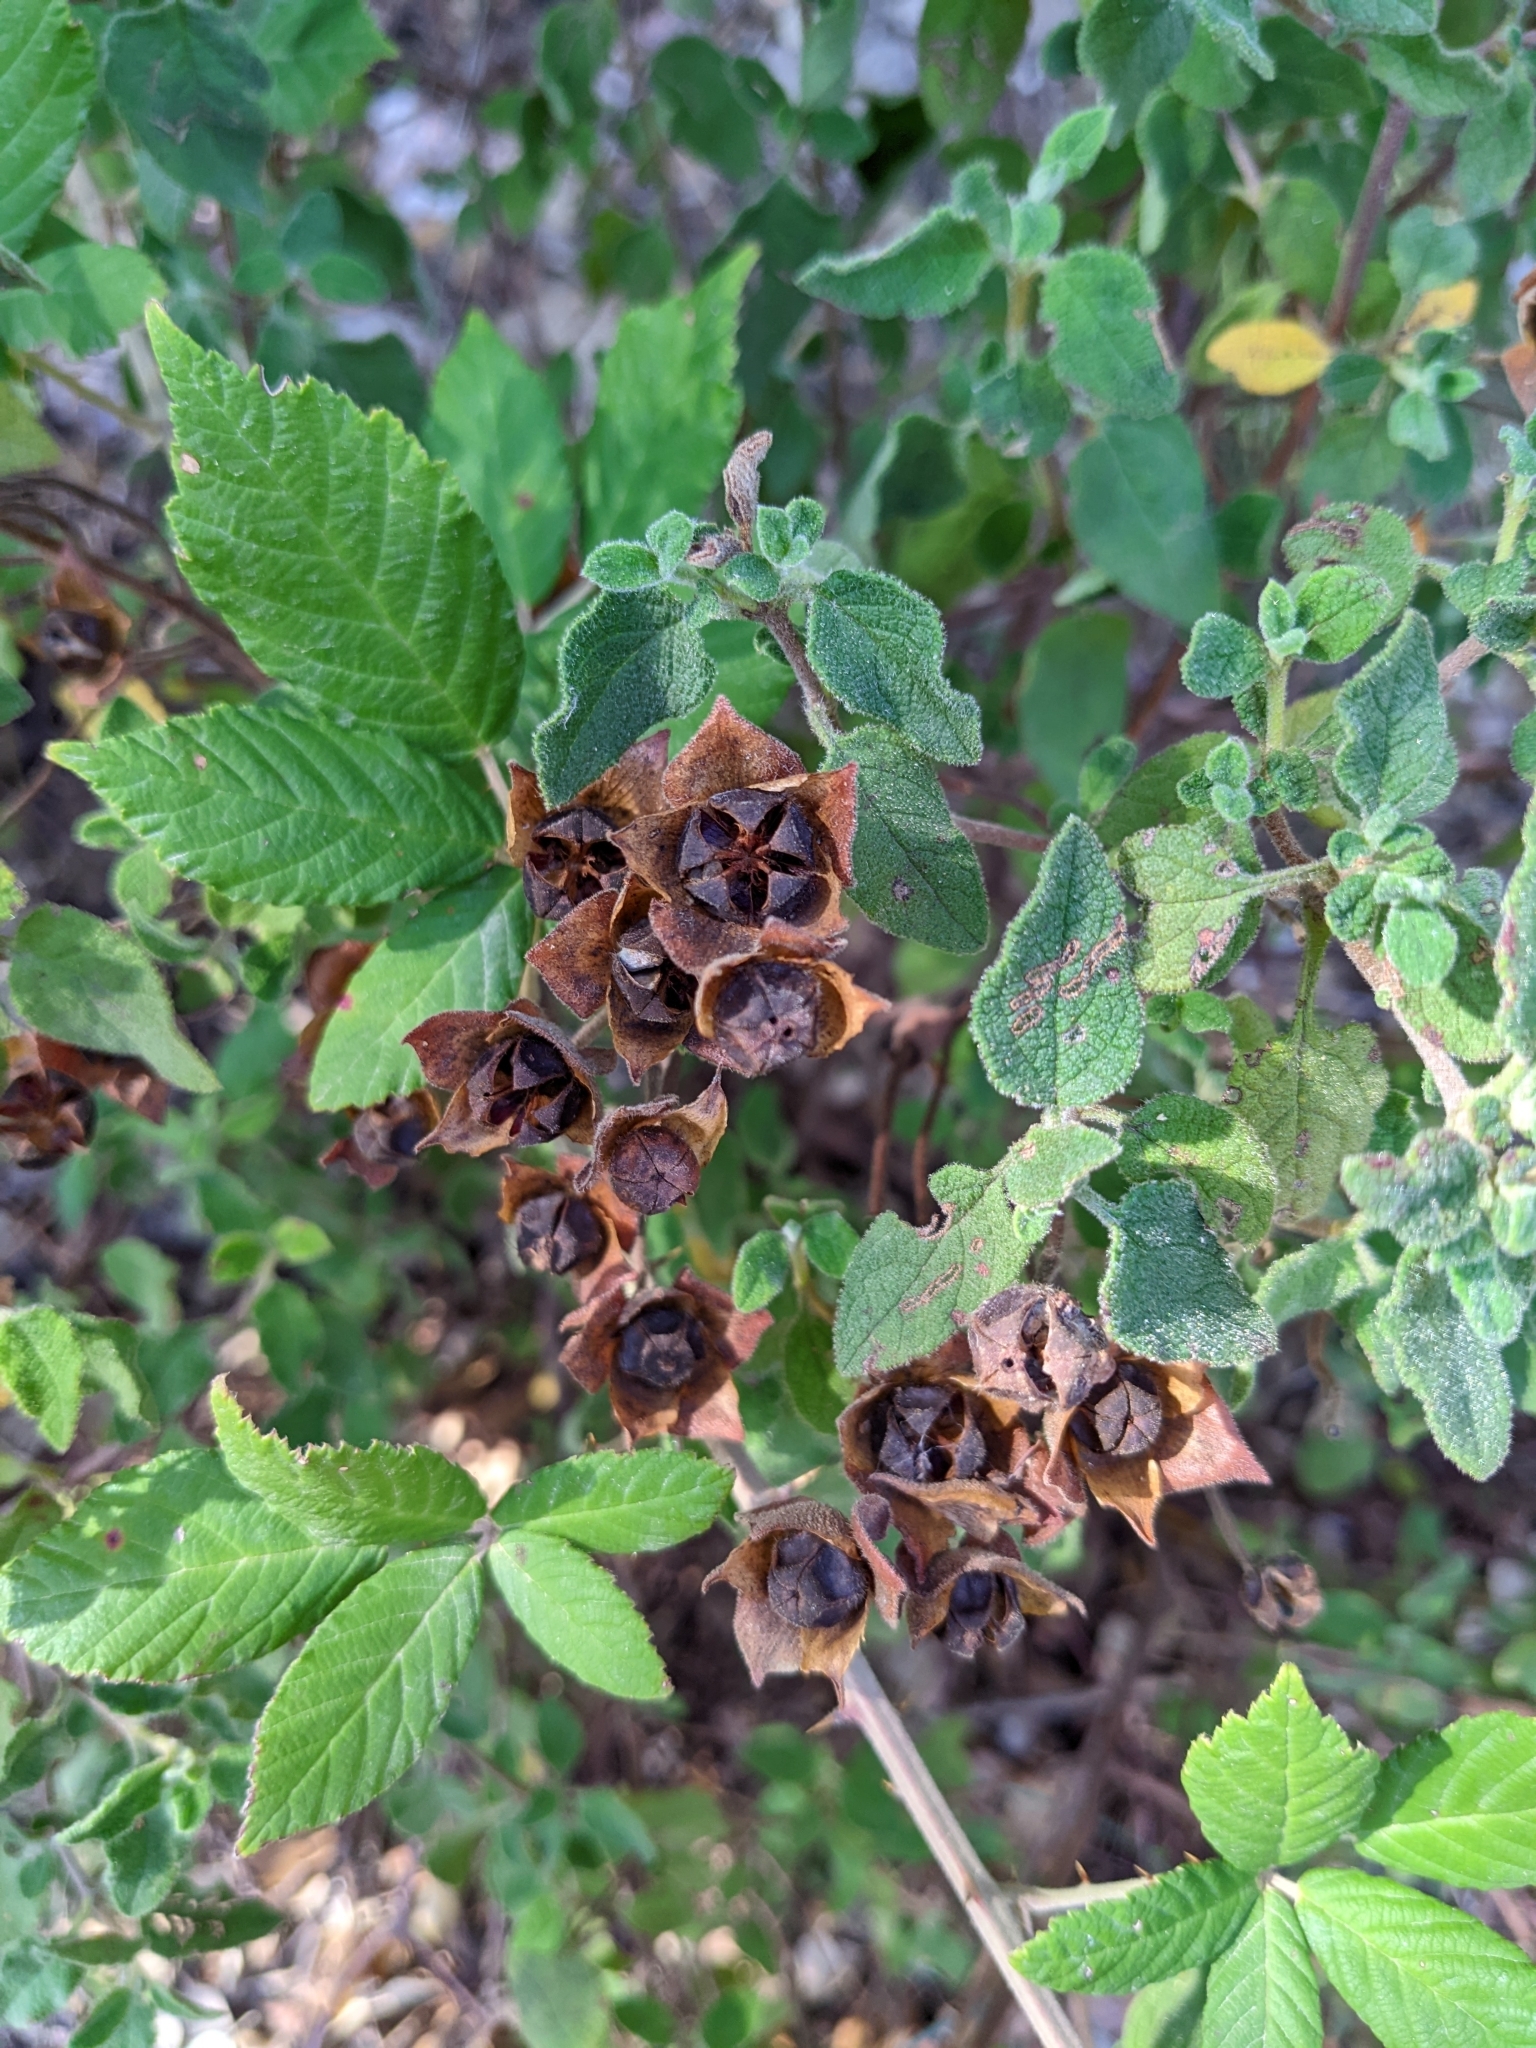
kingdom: Plantae
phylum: Tracheophyta
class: Magnoliopsida
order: Malvales
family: Cistaceae
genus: Cistus
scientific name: Cistus salviifolius
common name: Salvia cistus
